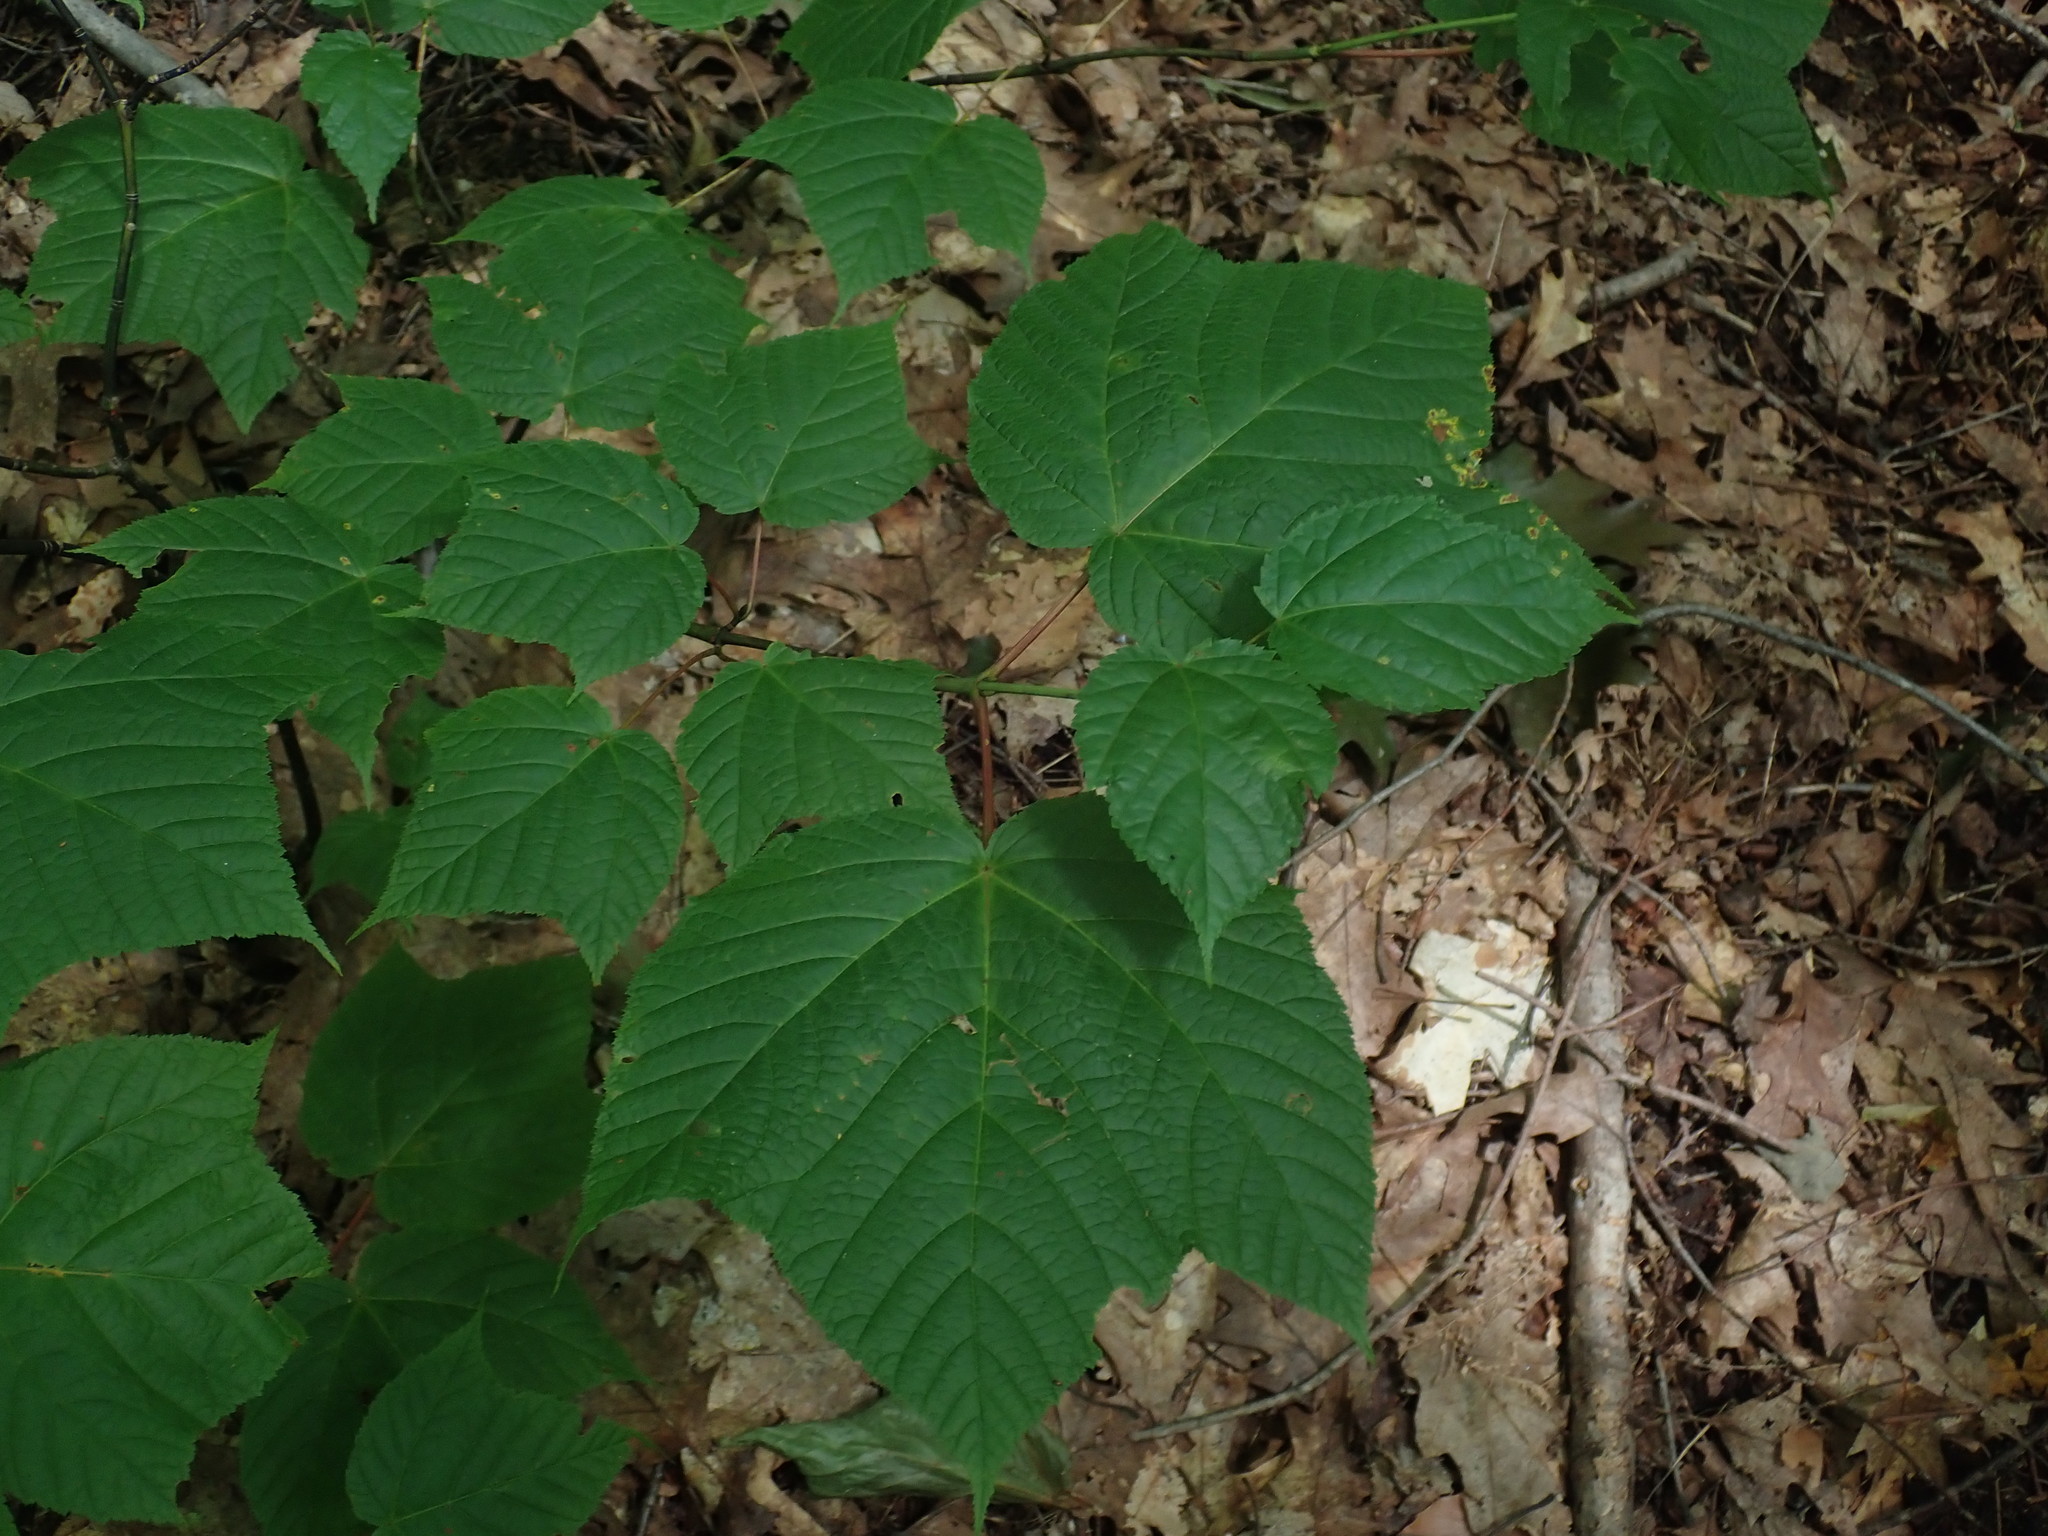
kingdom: Plantae
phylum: Tracheophyta
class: Magnoliopsida
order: Sapindales
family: Sapindaceae
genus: Acer
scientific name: Acer pensylvanicum
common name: Moosewood
